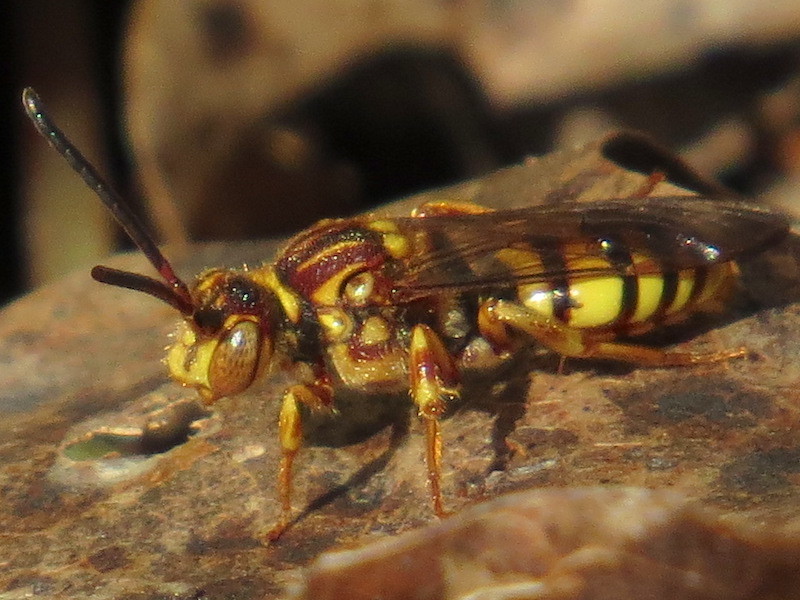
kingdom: Animalia
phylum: Arthropoda
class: Insecta
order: Hymenoptera
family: Apidae
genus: Nomada
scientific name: Nomada
